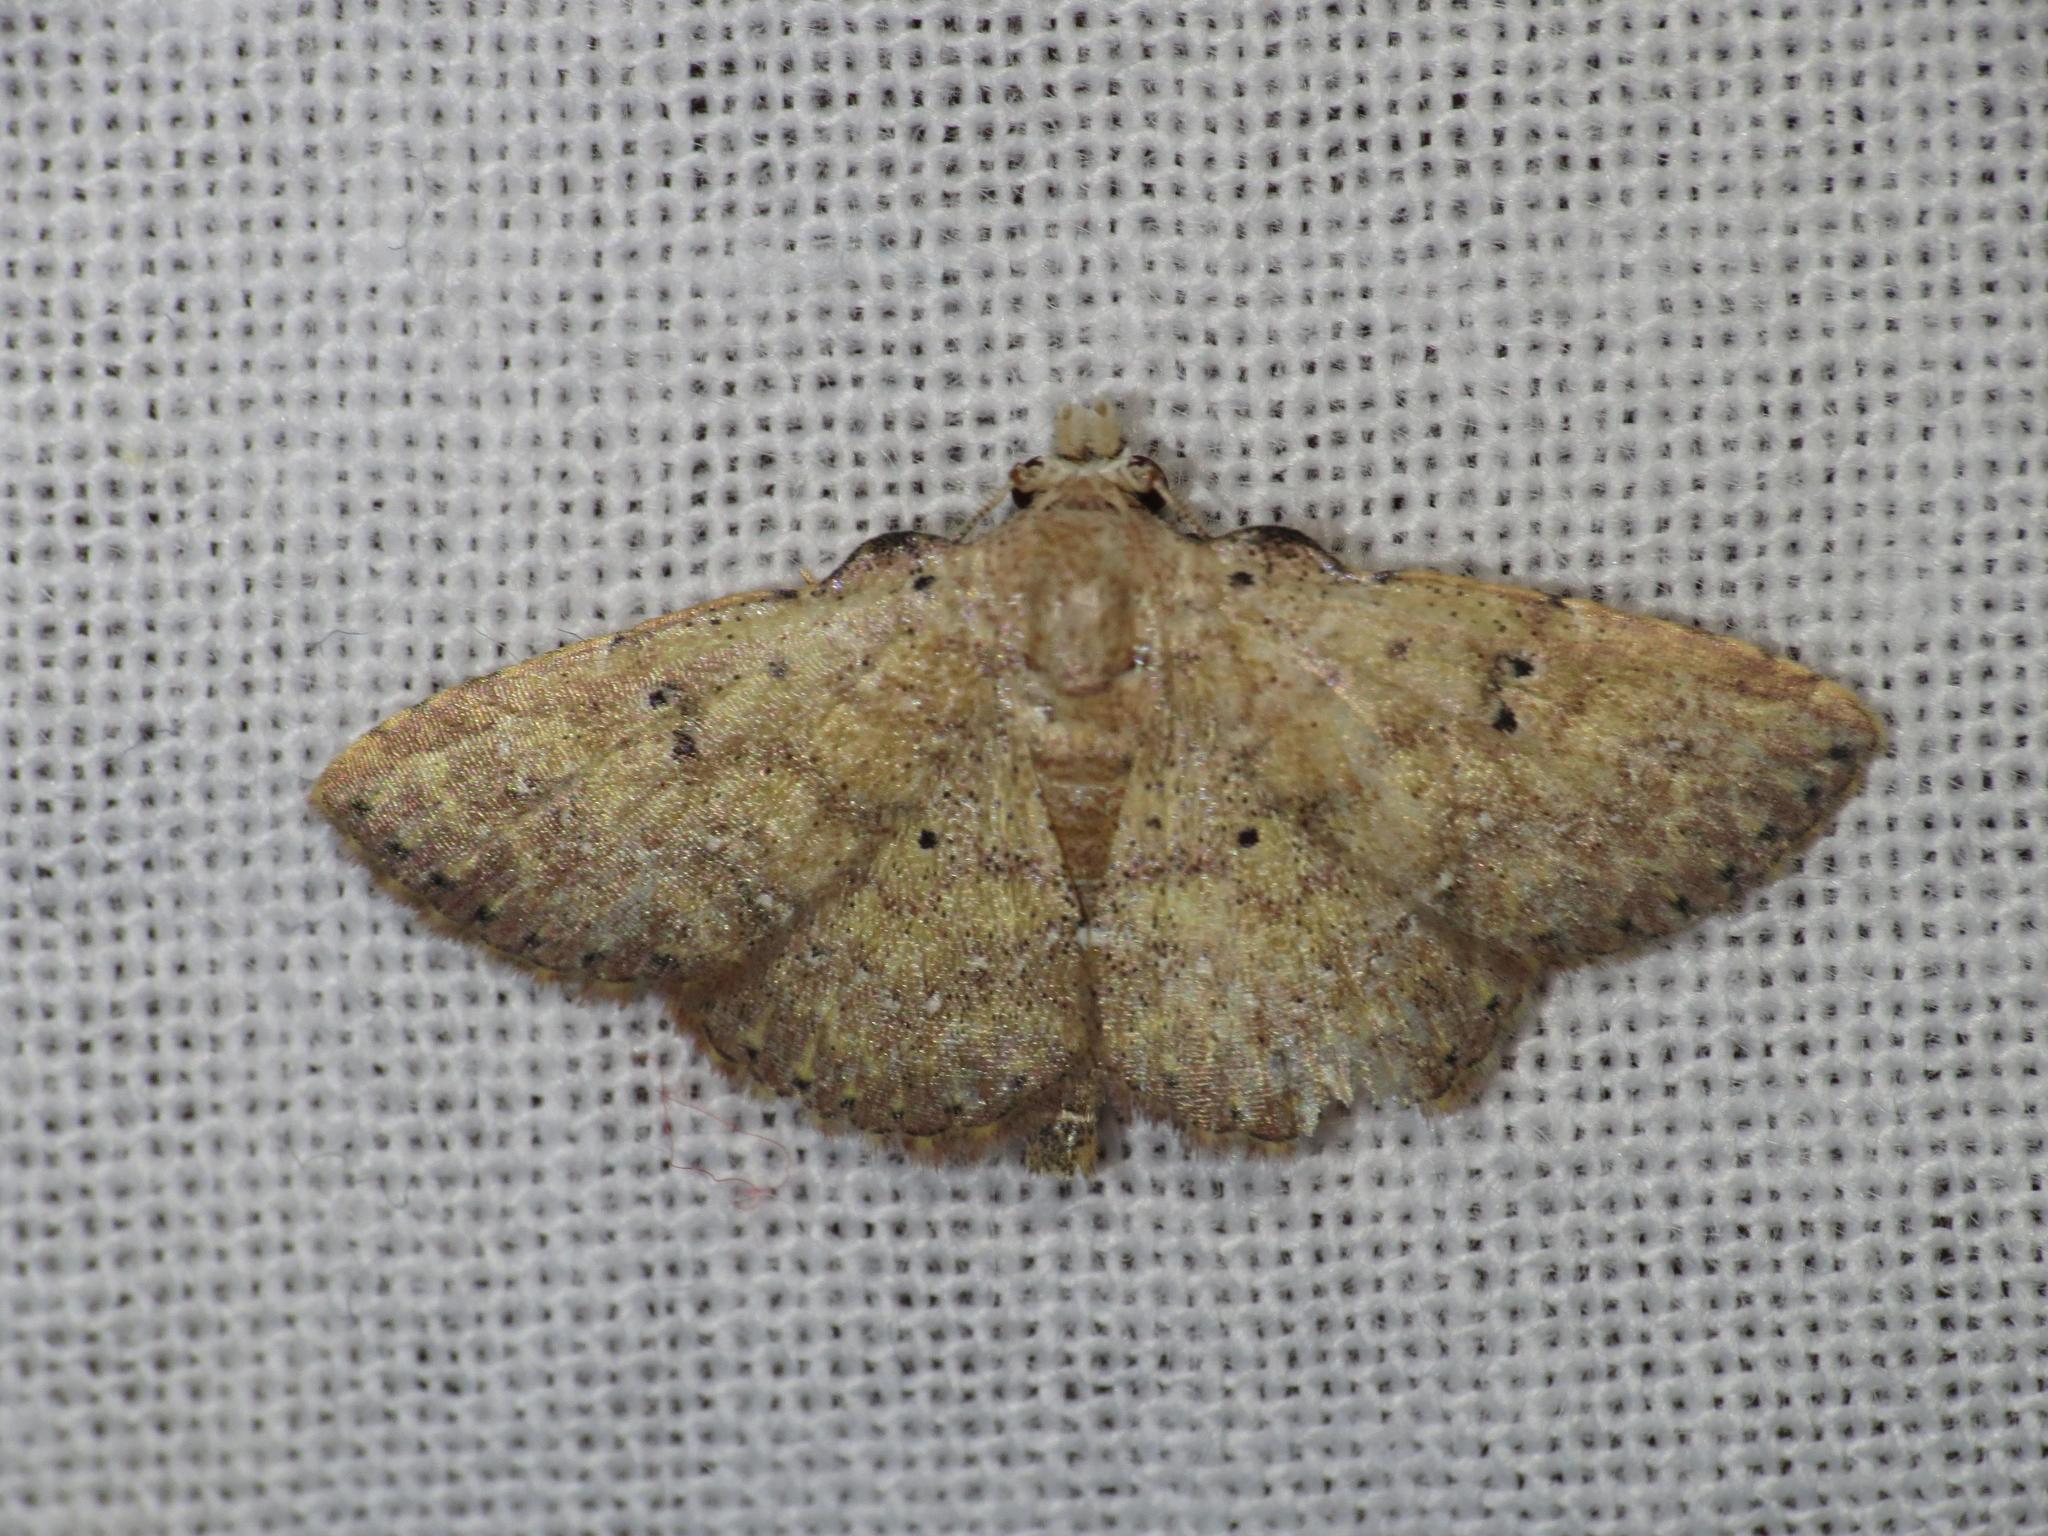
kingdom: Animalia
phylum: Arthropoda
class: Insecta
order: Lepidoptera
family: Noctuidae
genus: Cerynea
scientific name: Cerynea trogobasis
